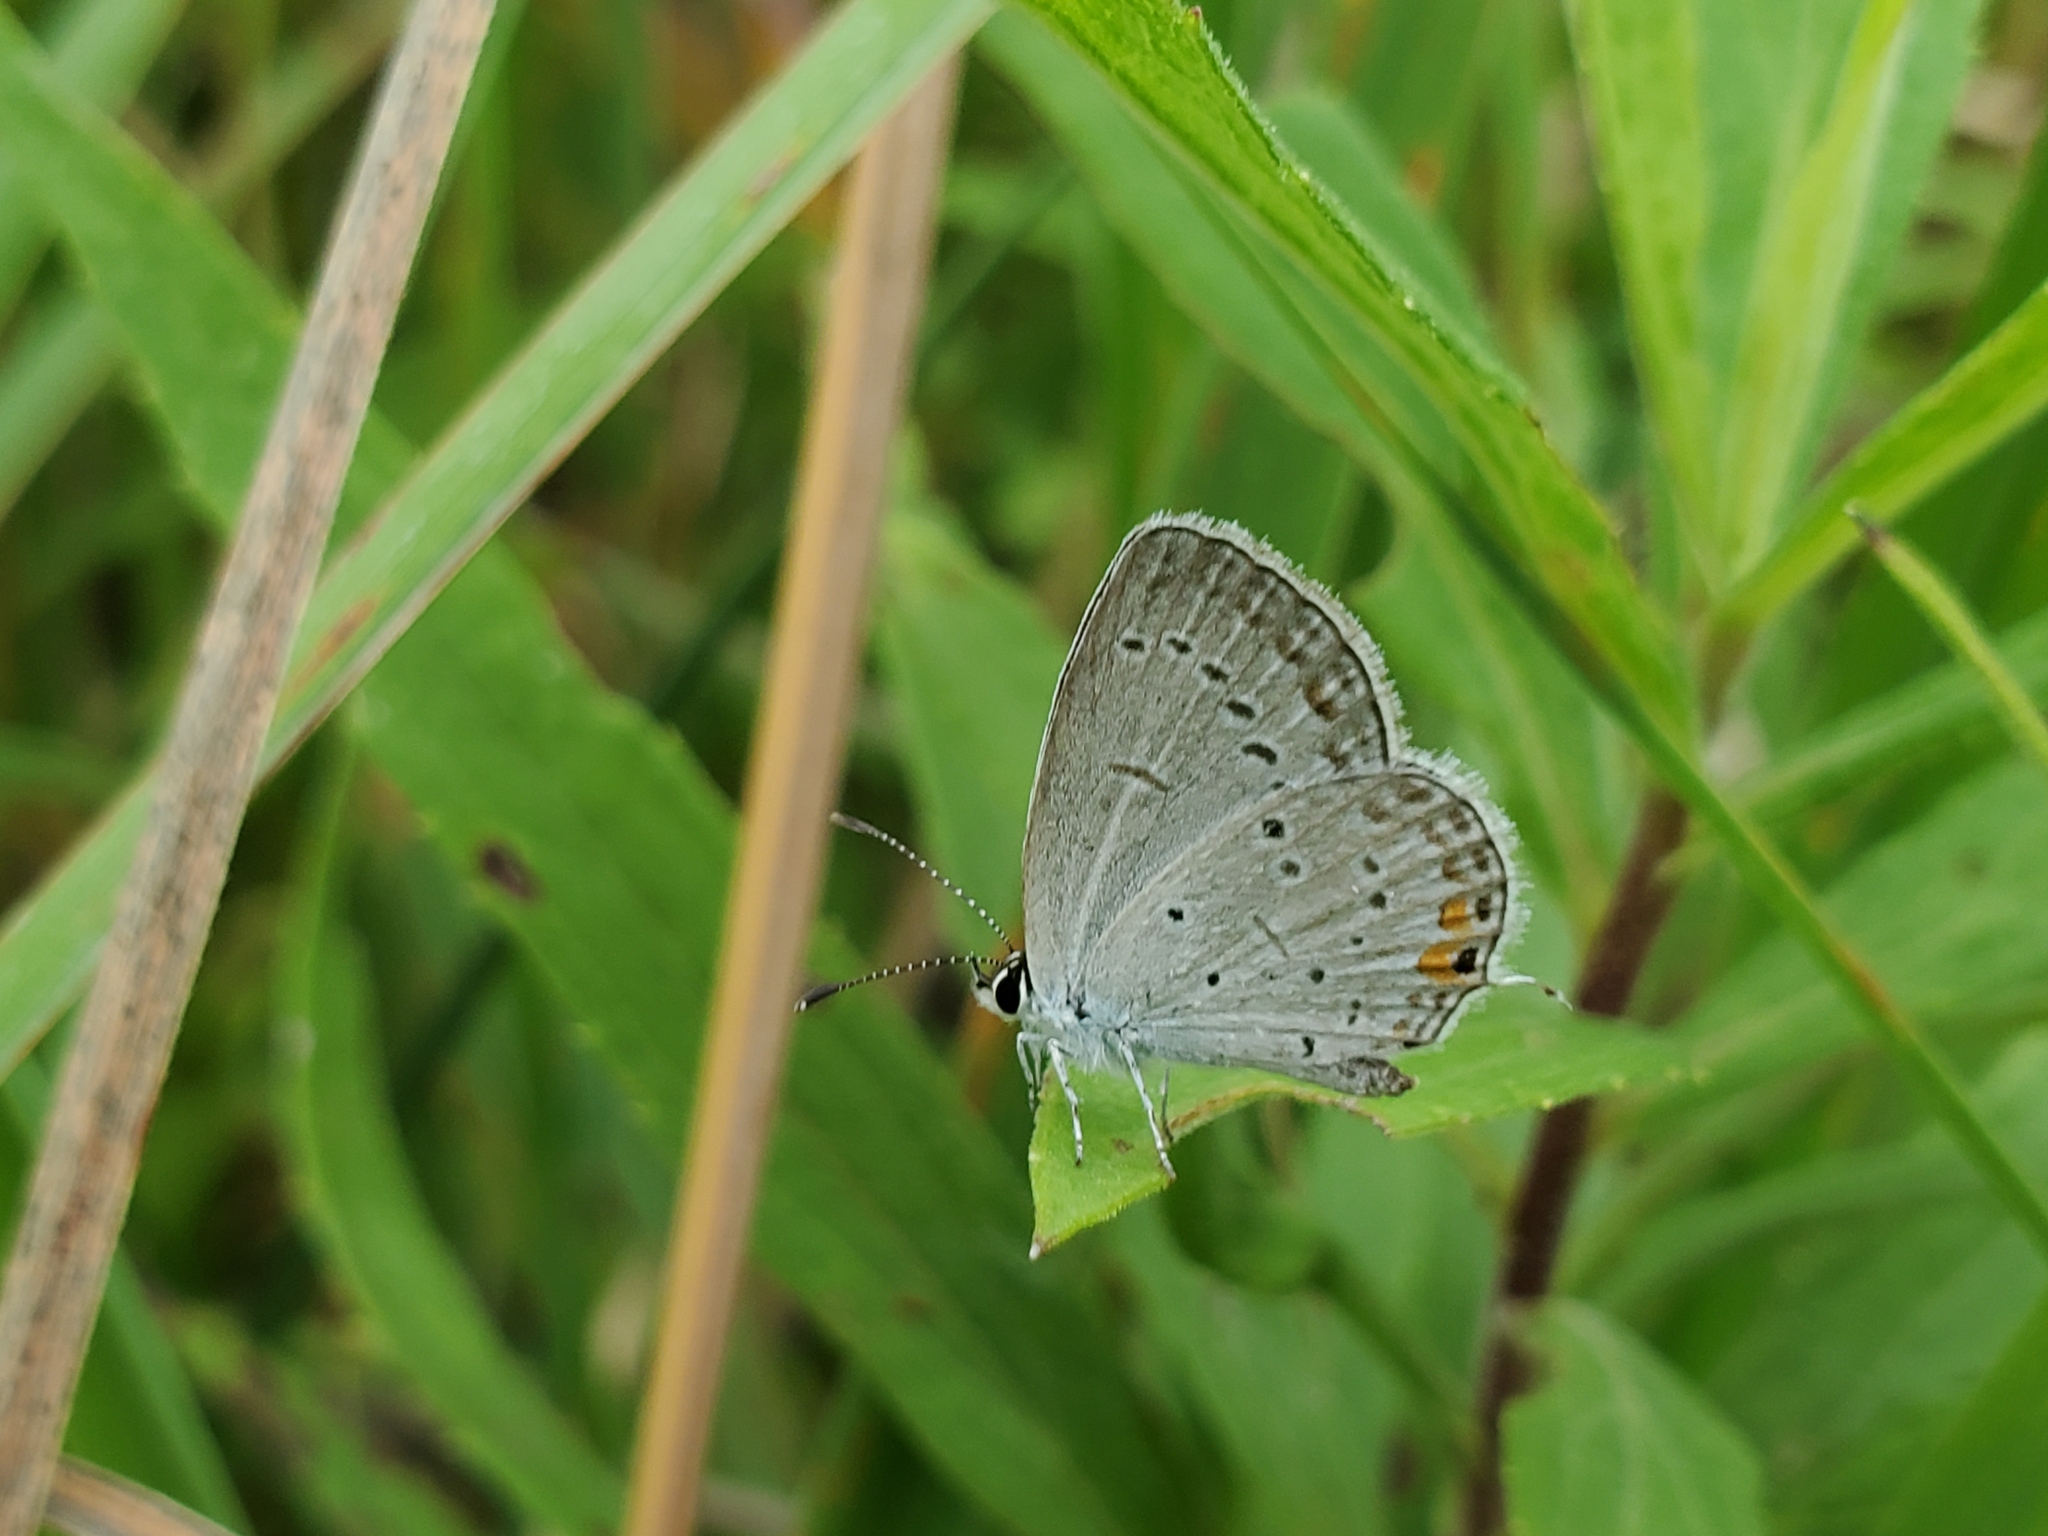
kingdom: Animalia
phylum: Arthropoda
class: Insecta
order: Lepidoptera
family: Lycaenidae
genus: Elkalyce
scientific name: Elkalyce comyntas
